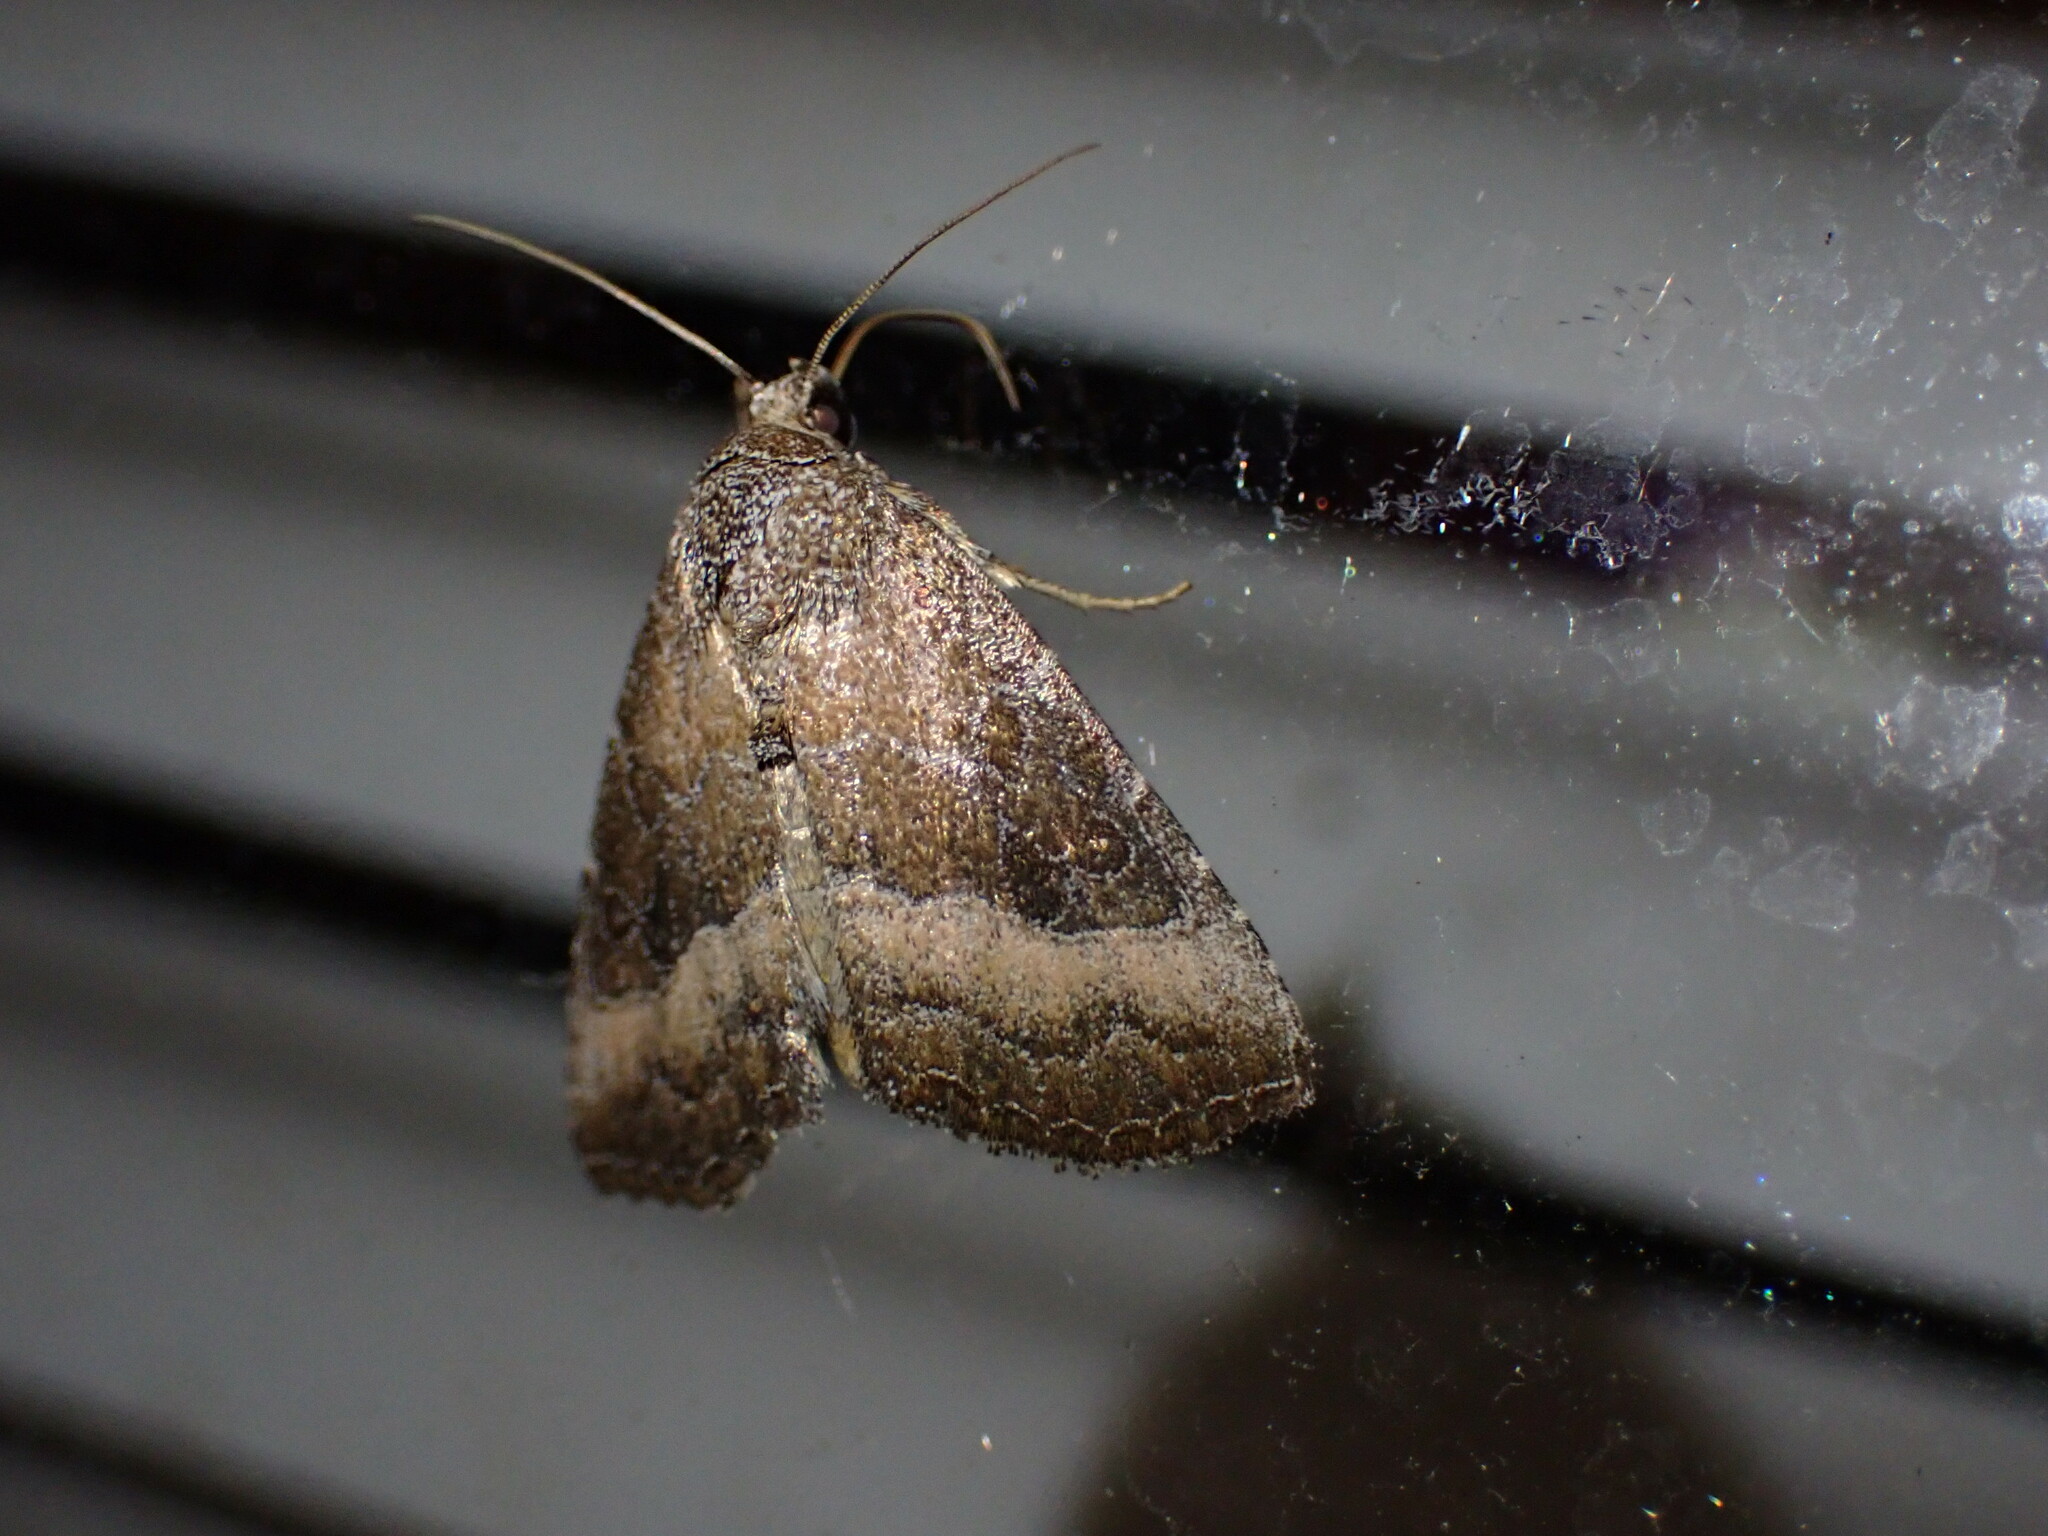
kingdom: Animalia
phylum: Arthropoda
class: Insecta
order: Lepidoptera
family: Noctuidae
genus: Ogdoconta
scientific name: Ogdoconta cinereola
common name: Common pinkband
